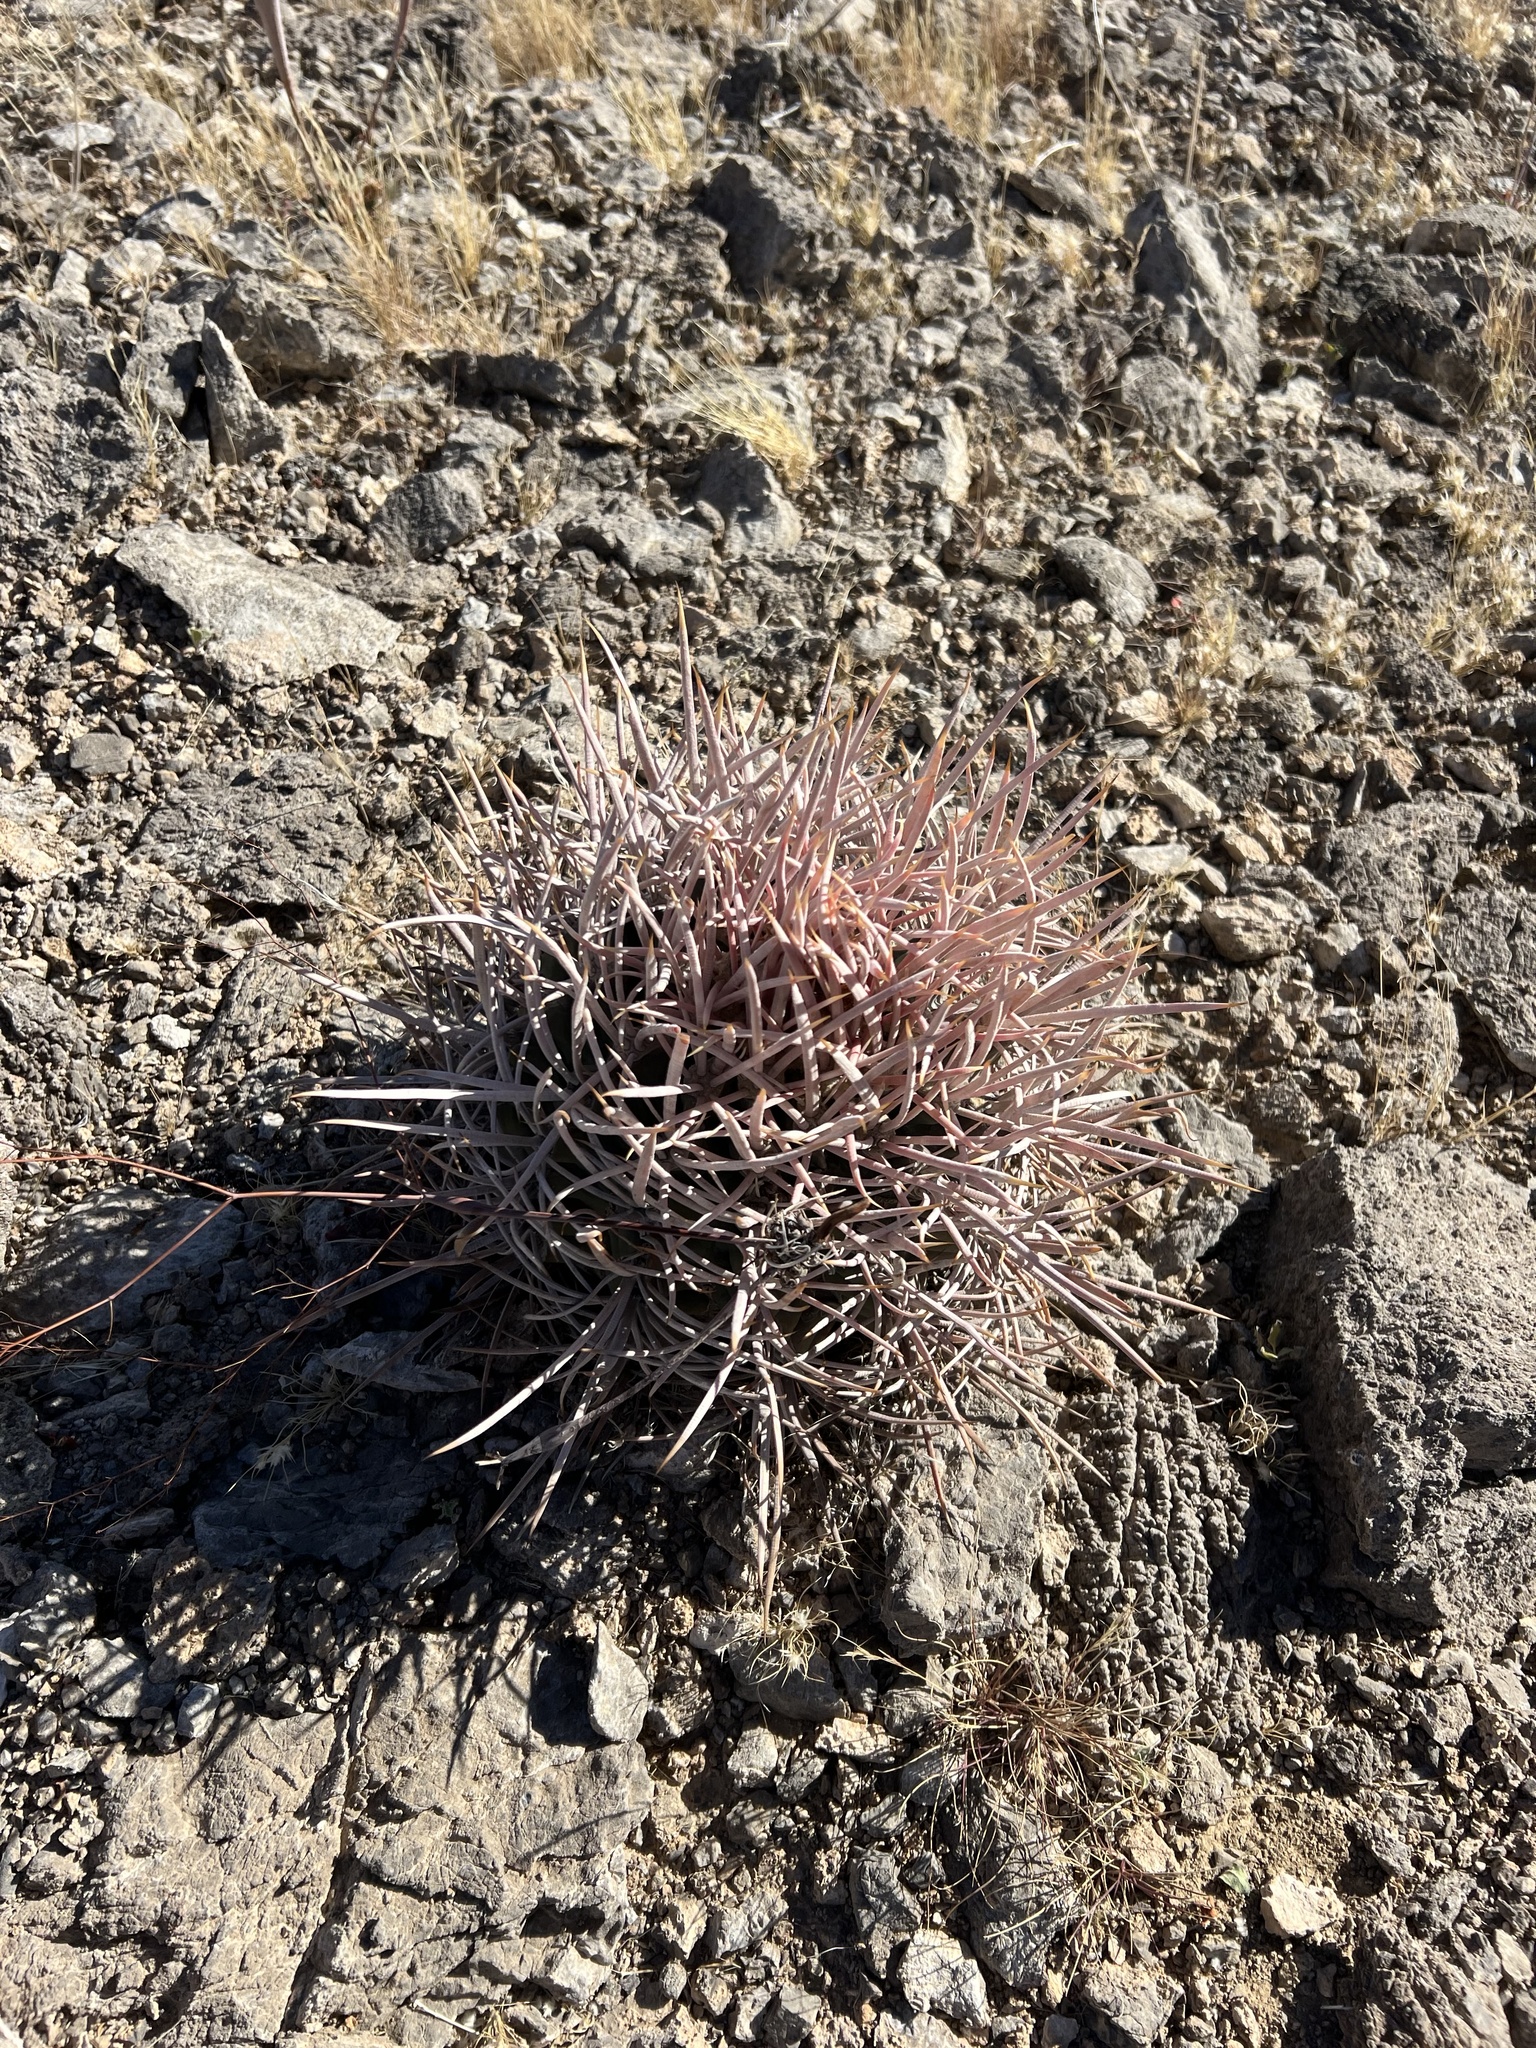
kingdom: Plantae
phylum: Tracheophyta
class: Magnoliopsida
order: Caryophyllales
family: Cactaceae
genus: Echinocactus
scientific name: Echinocactus polycephalus
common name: Cottontop cactus
